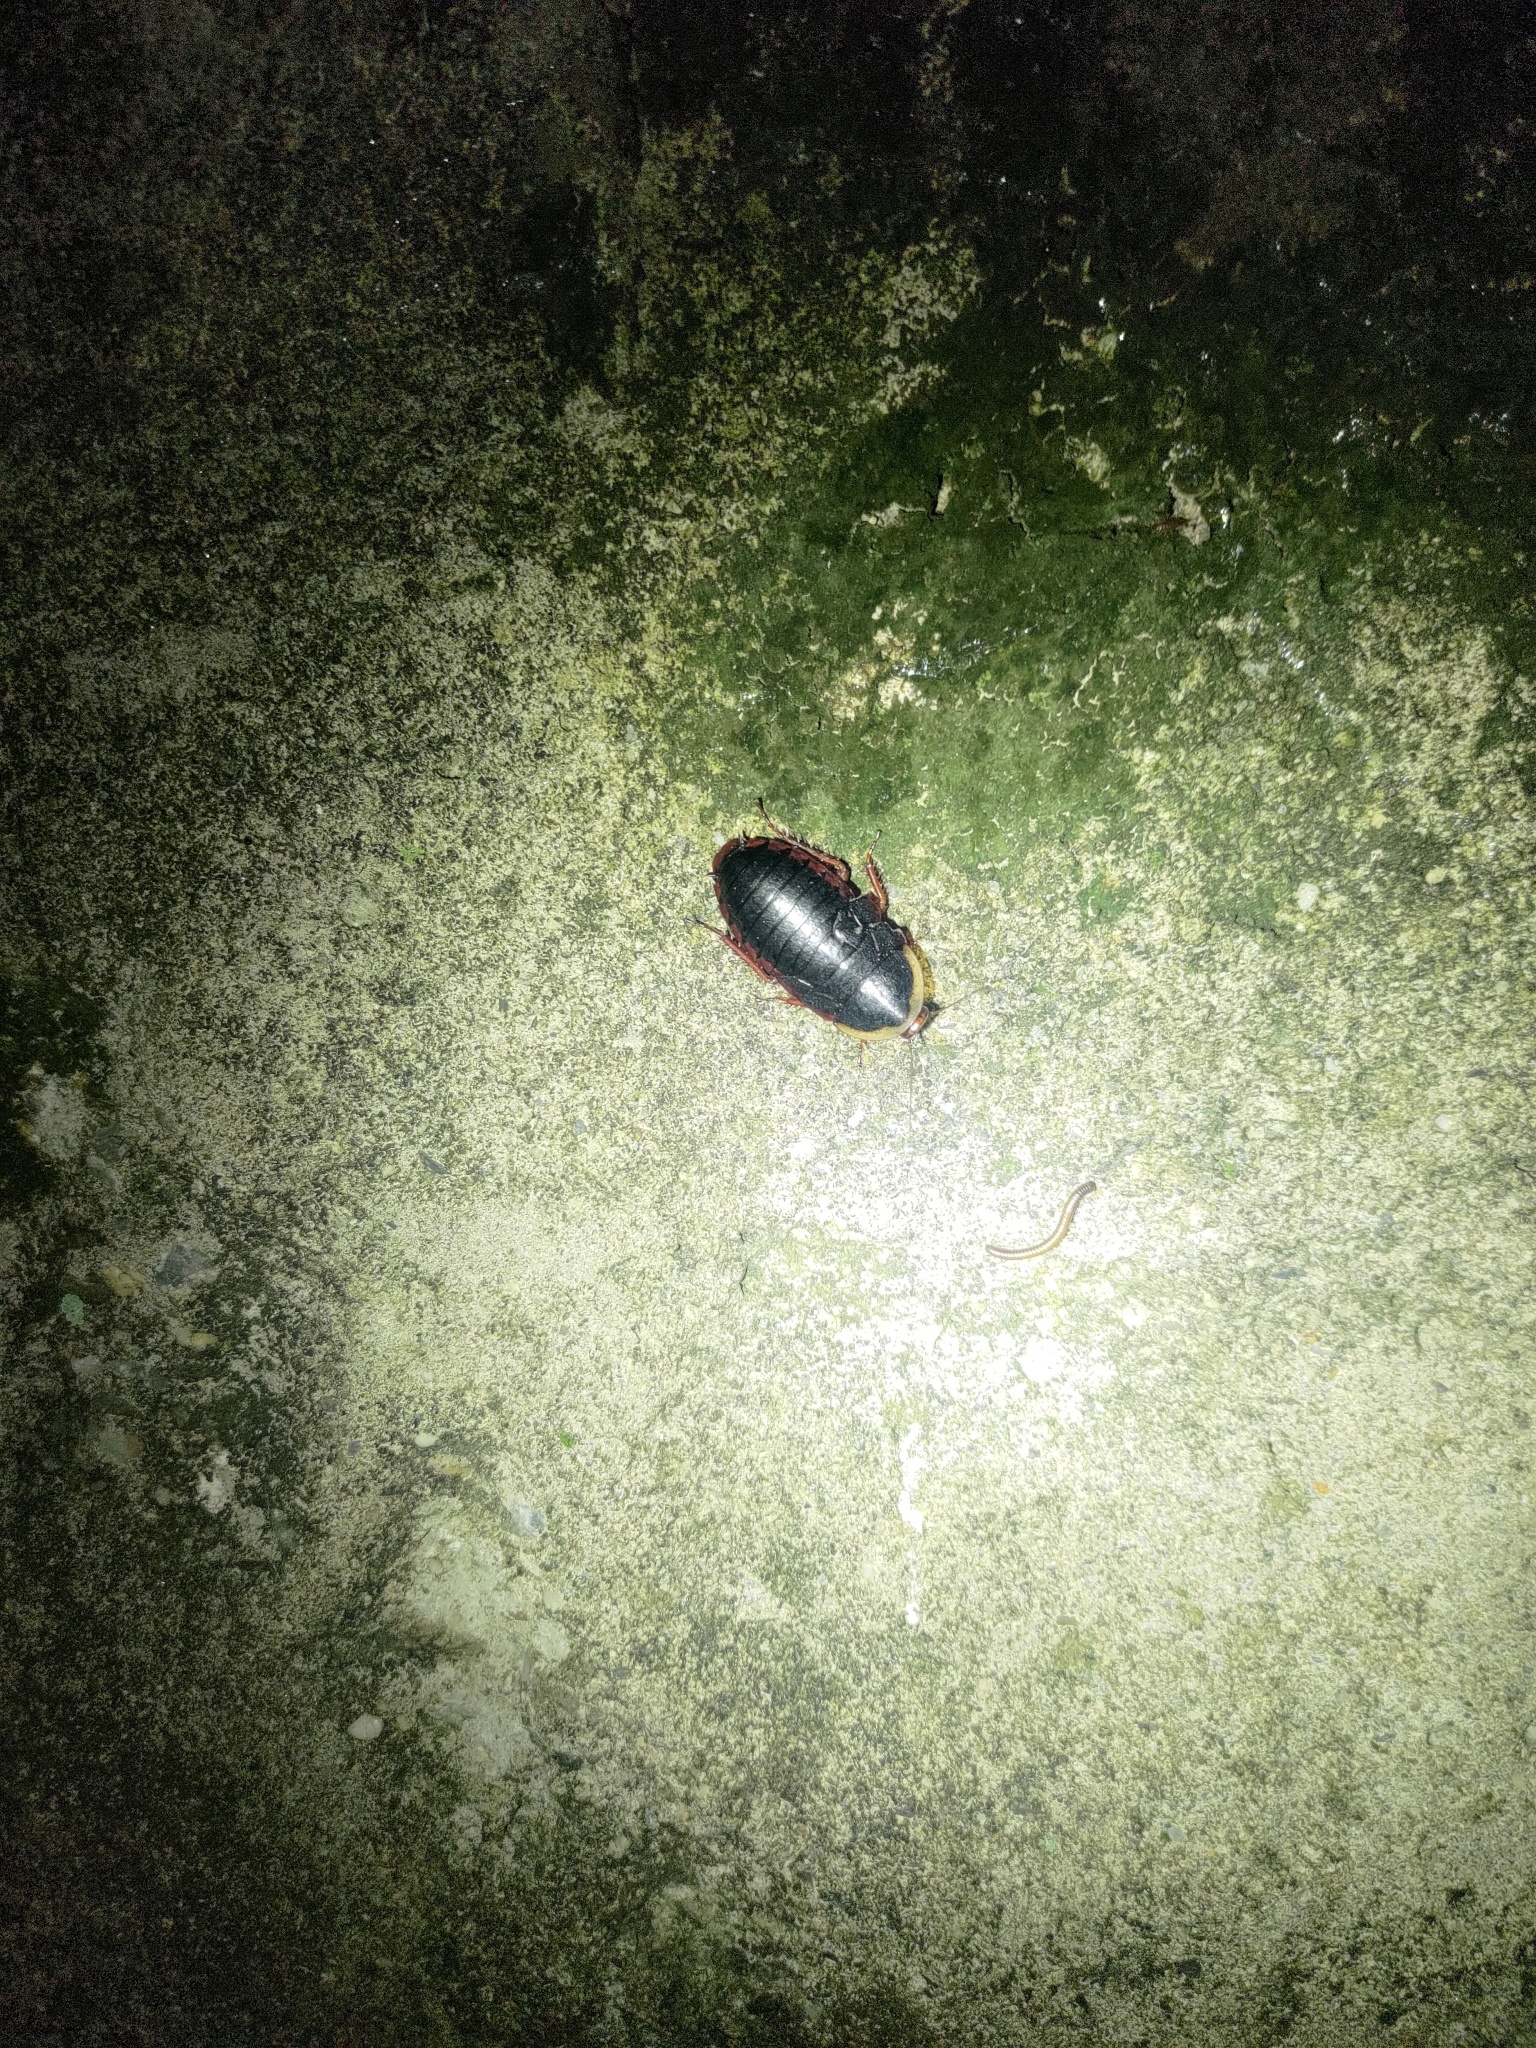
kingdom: Animalia
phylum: Arthropoda
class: Insecta
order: Blattodea
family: Blaberidae
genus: Opisthoplatia
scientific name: Opisthoplatia orientalis
